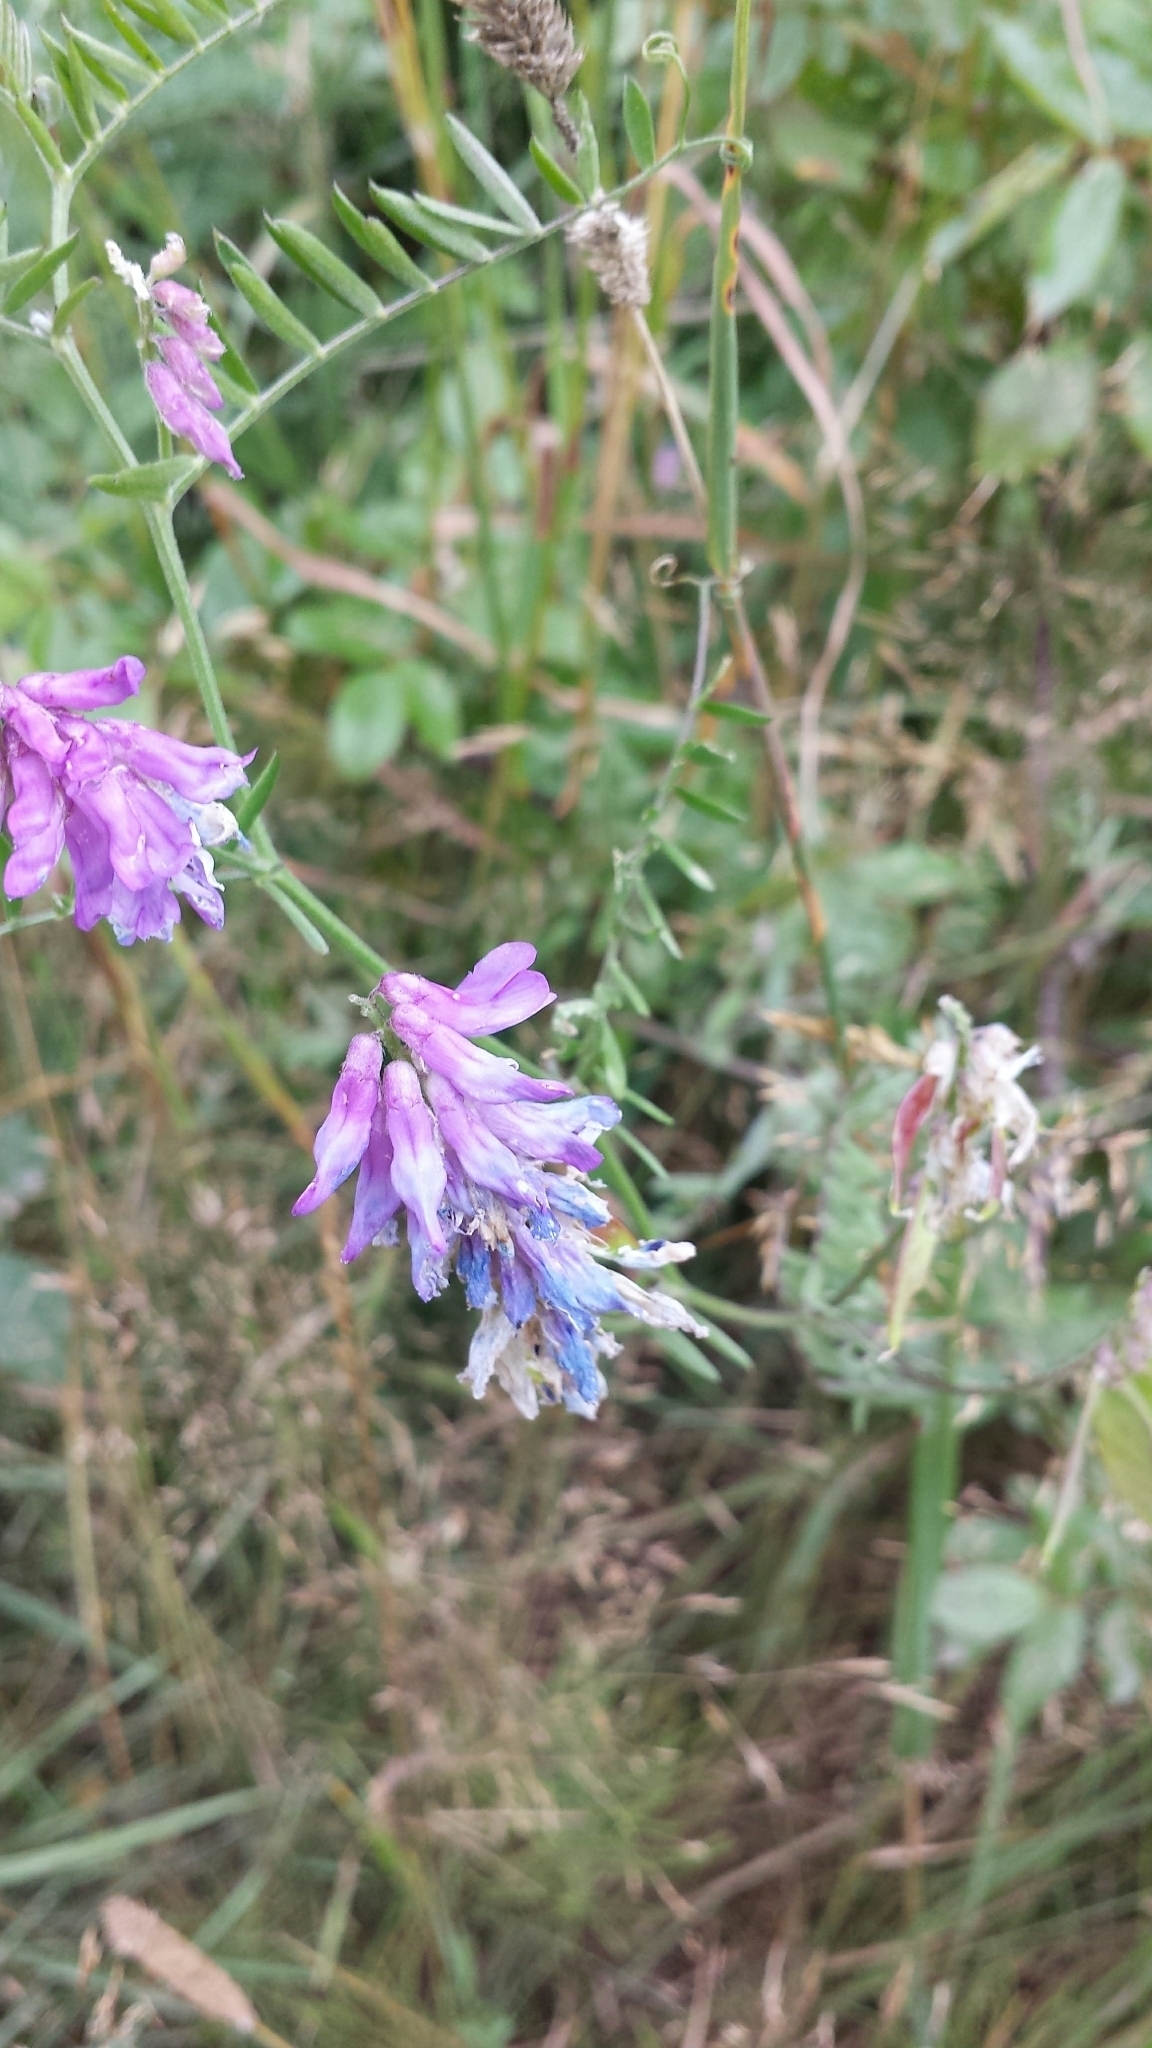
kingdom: Plantae
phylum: Tracheophyta
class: Magnoliopsida
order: Fabales
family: Fabaceae
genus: Vicia
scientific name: Vicia cracca
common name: Bird vetch
